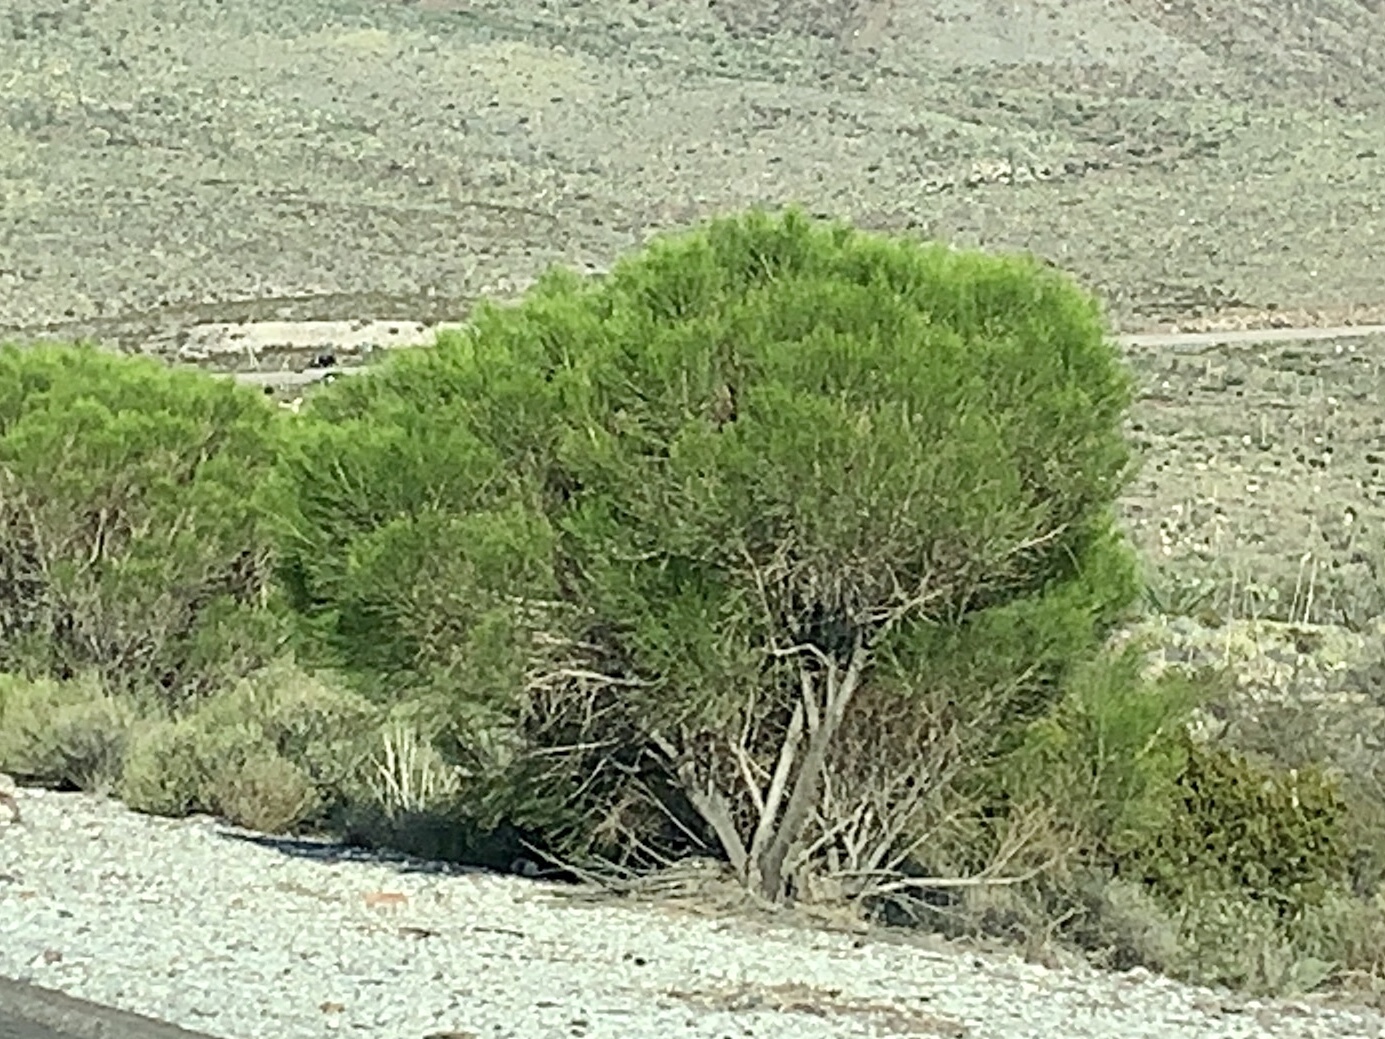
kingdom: Plantae
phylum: Tracheophyta
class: Magnoliopsida
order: Asterales
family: Asteraceae
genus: Baccharis
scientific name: Baccharis sarothroides
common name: Desert-broom
